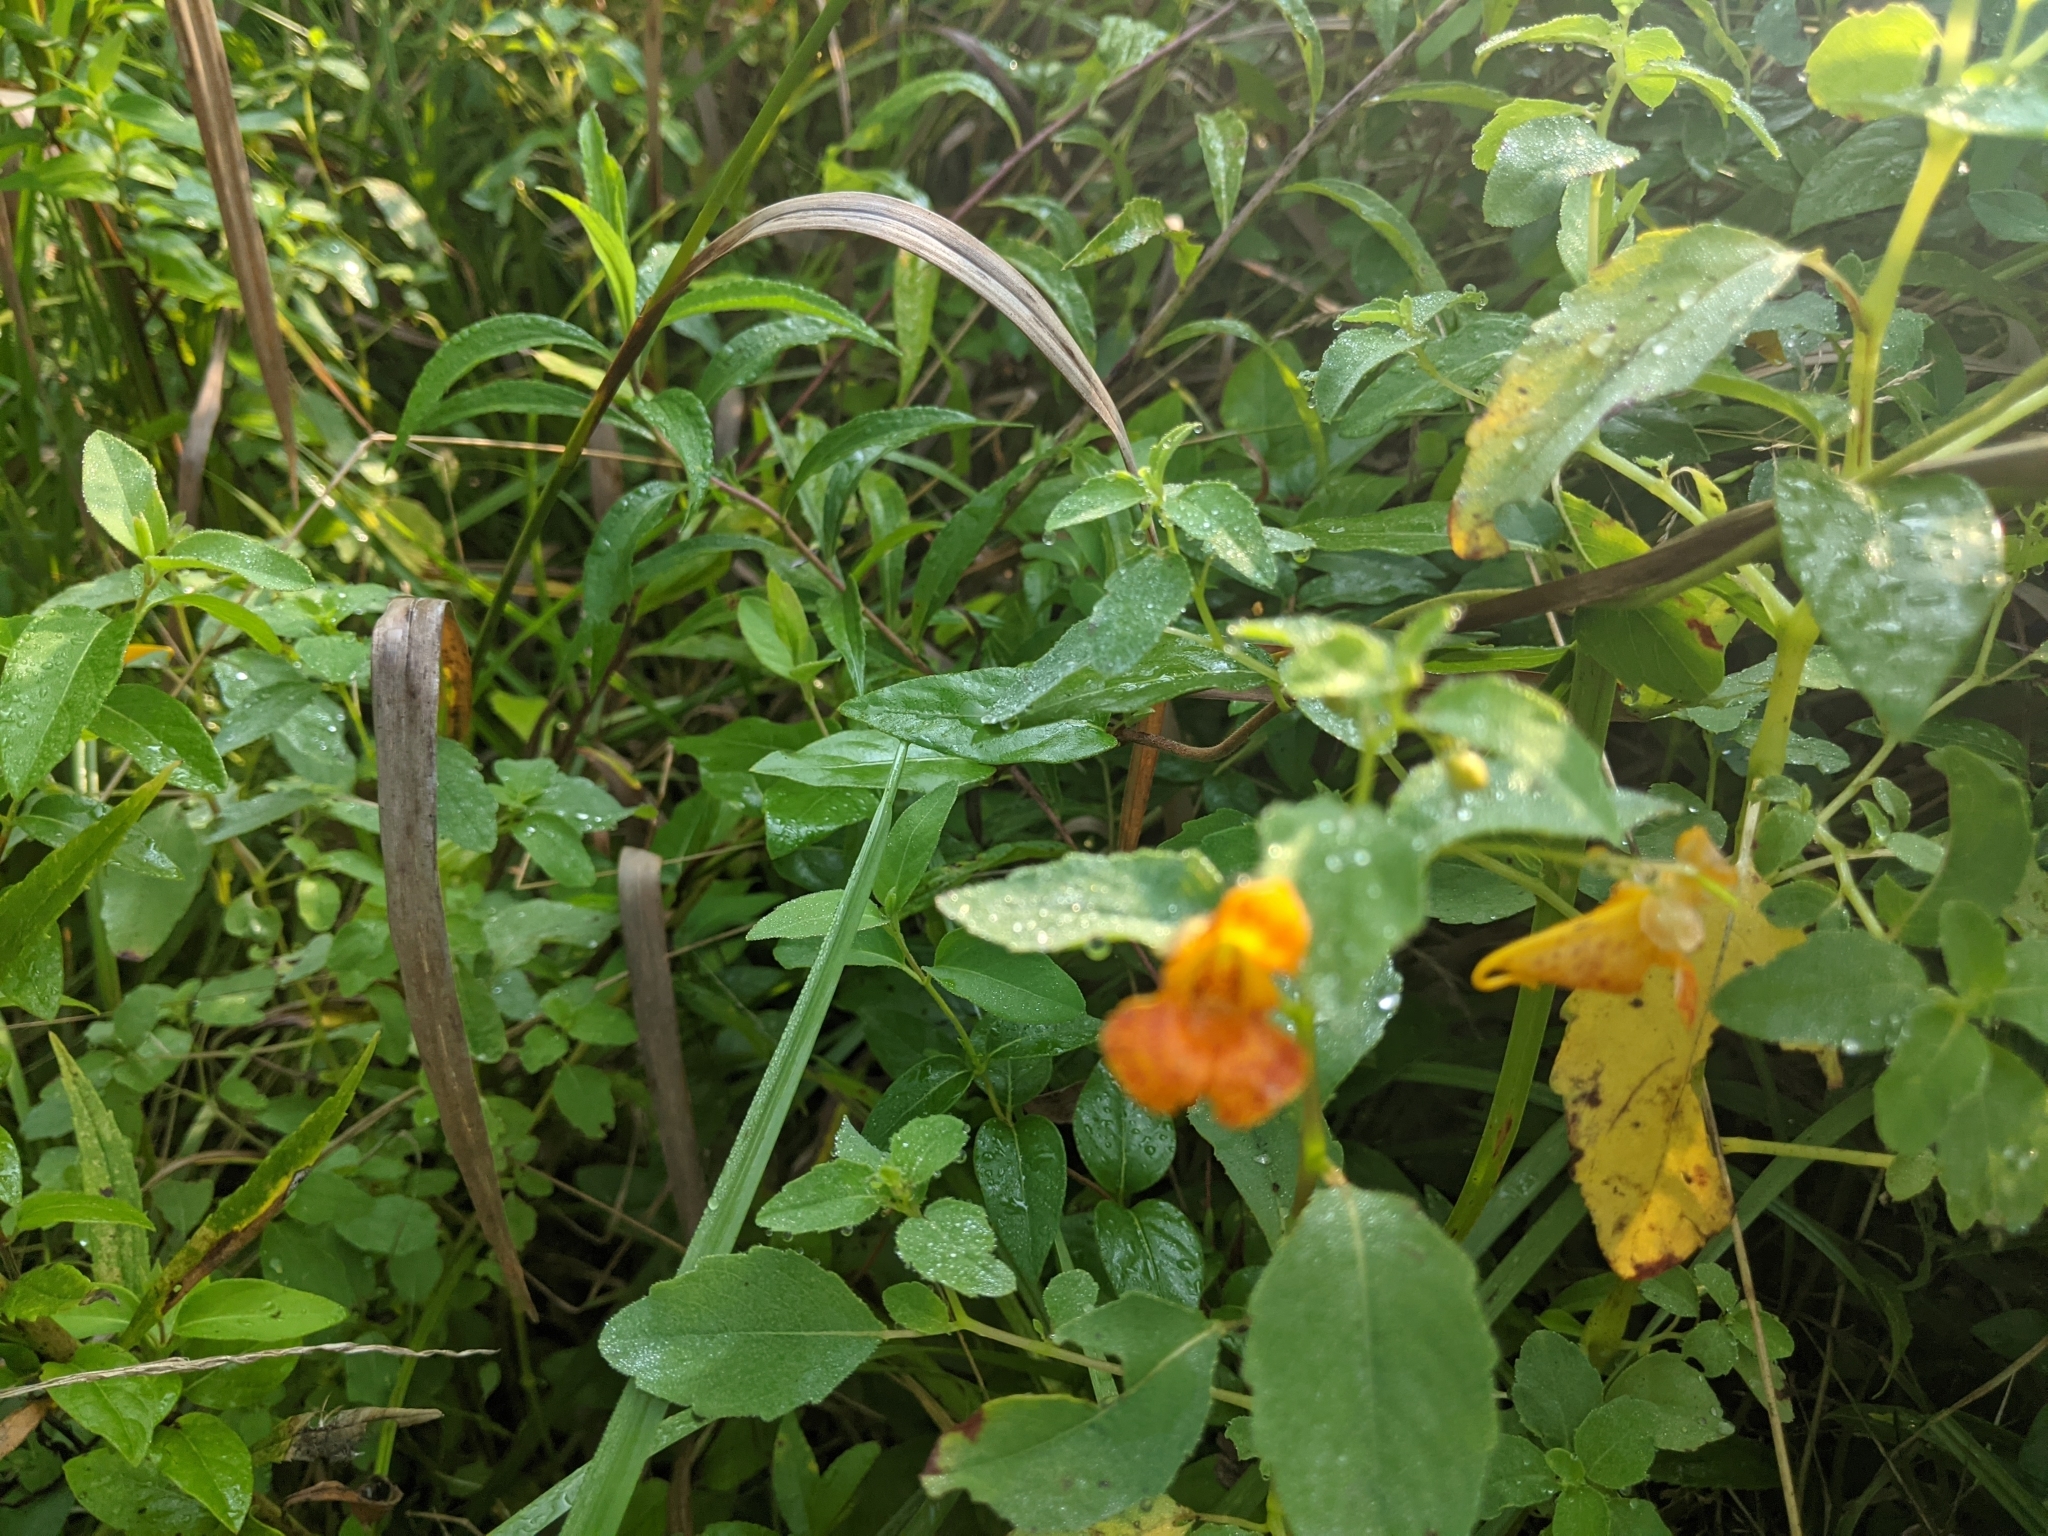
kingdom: Plantae
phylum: Tracheophyta
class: Magnoliopsida
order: Ericales
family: Balsaminaceae
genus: Impatiens
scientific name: Impatiens capensis
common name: Orange balsam
